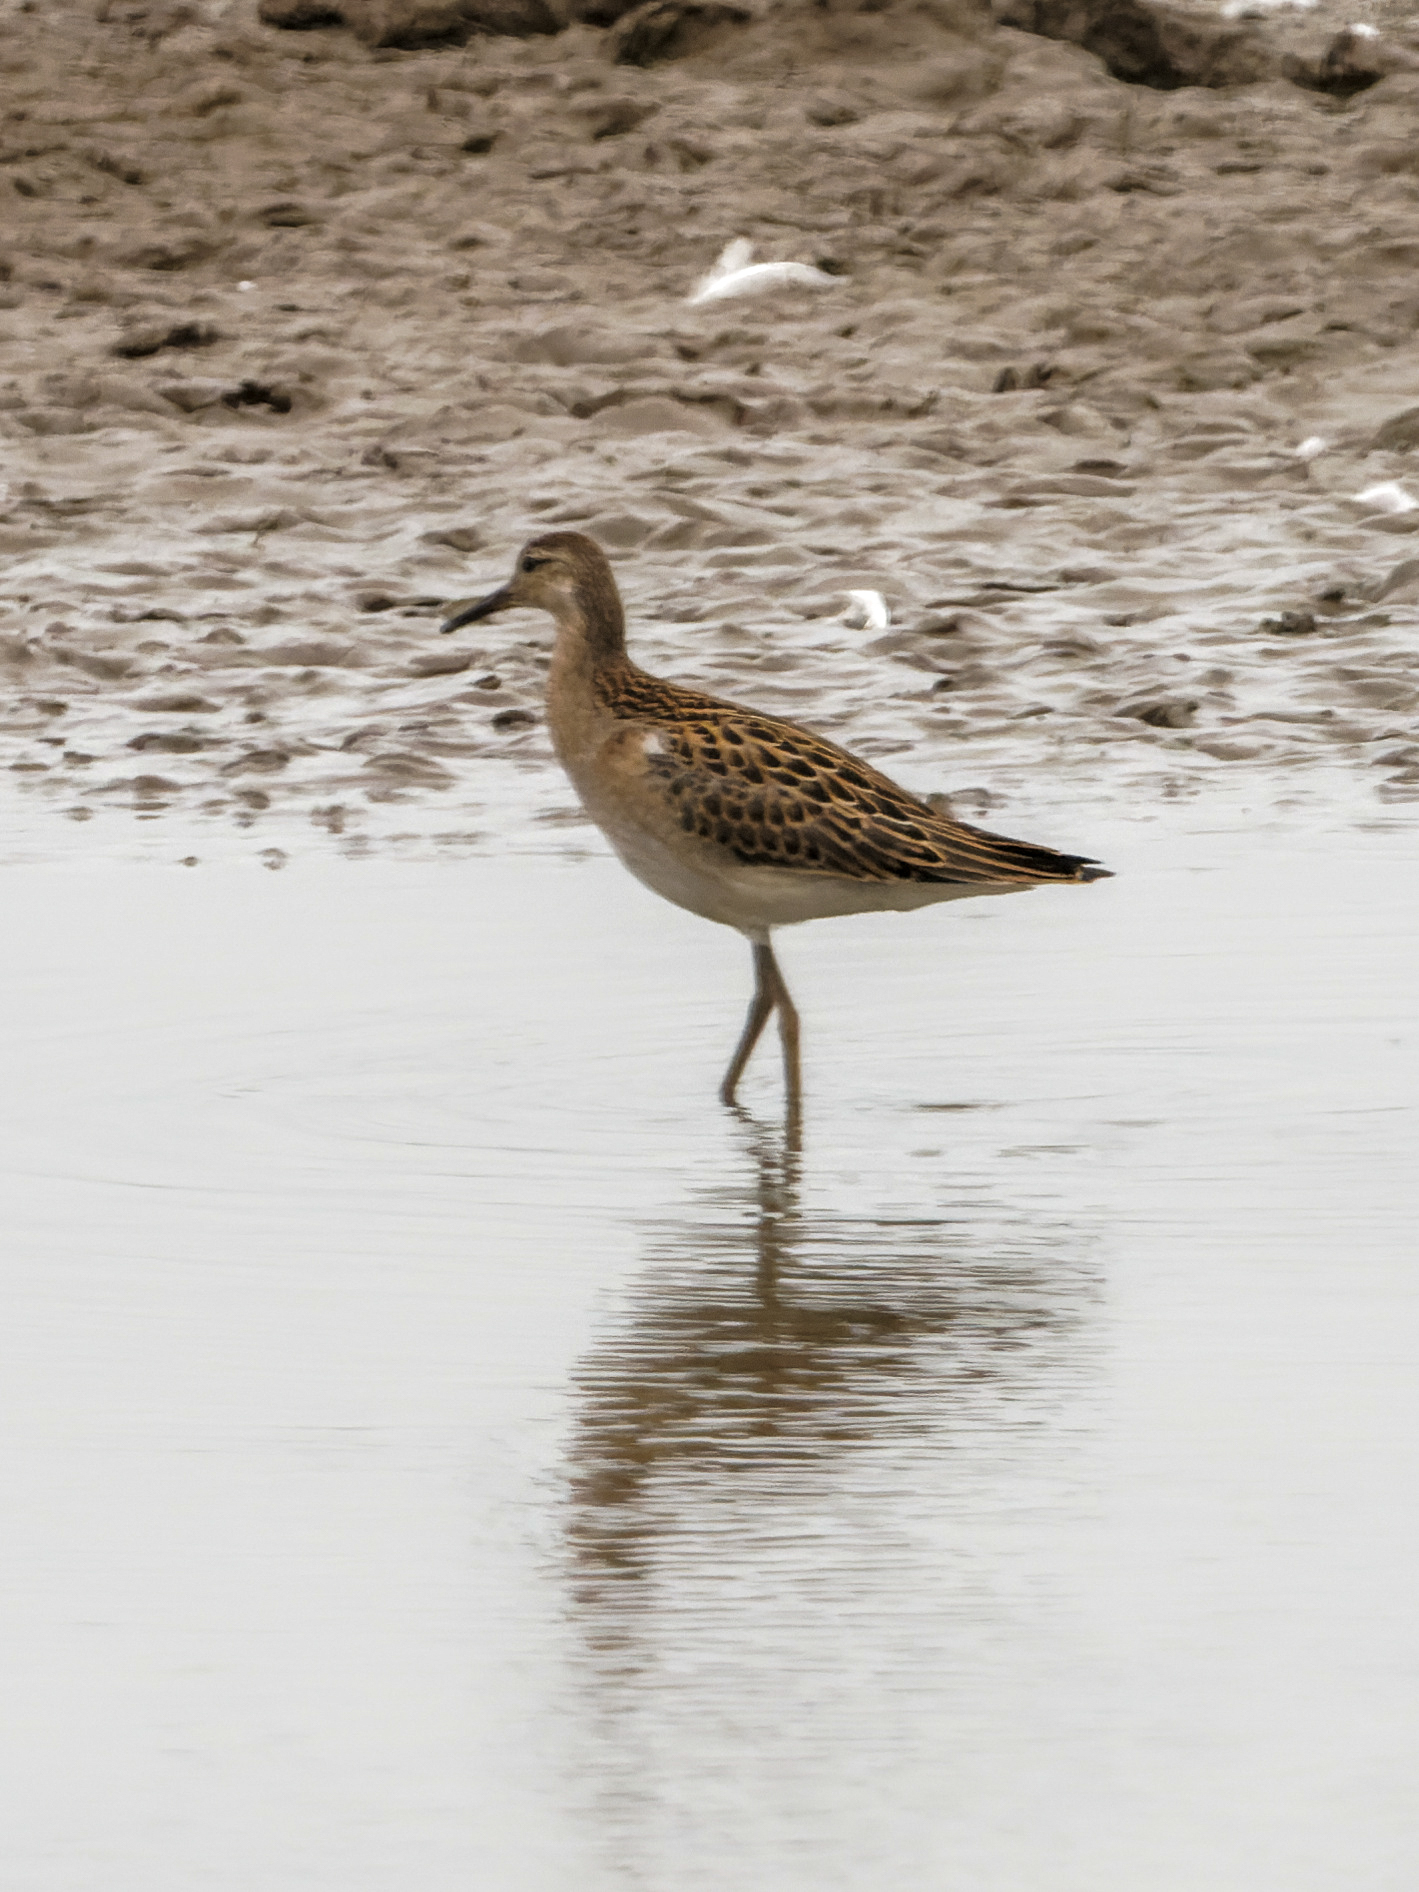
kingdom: Animalia
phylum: Chordata
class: Aves
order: Charadriiformes
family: Scolopacidae
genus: Calidris
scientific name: Calidris pugnax
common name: Ruff
